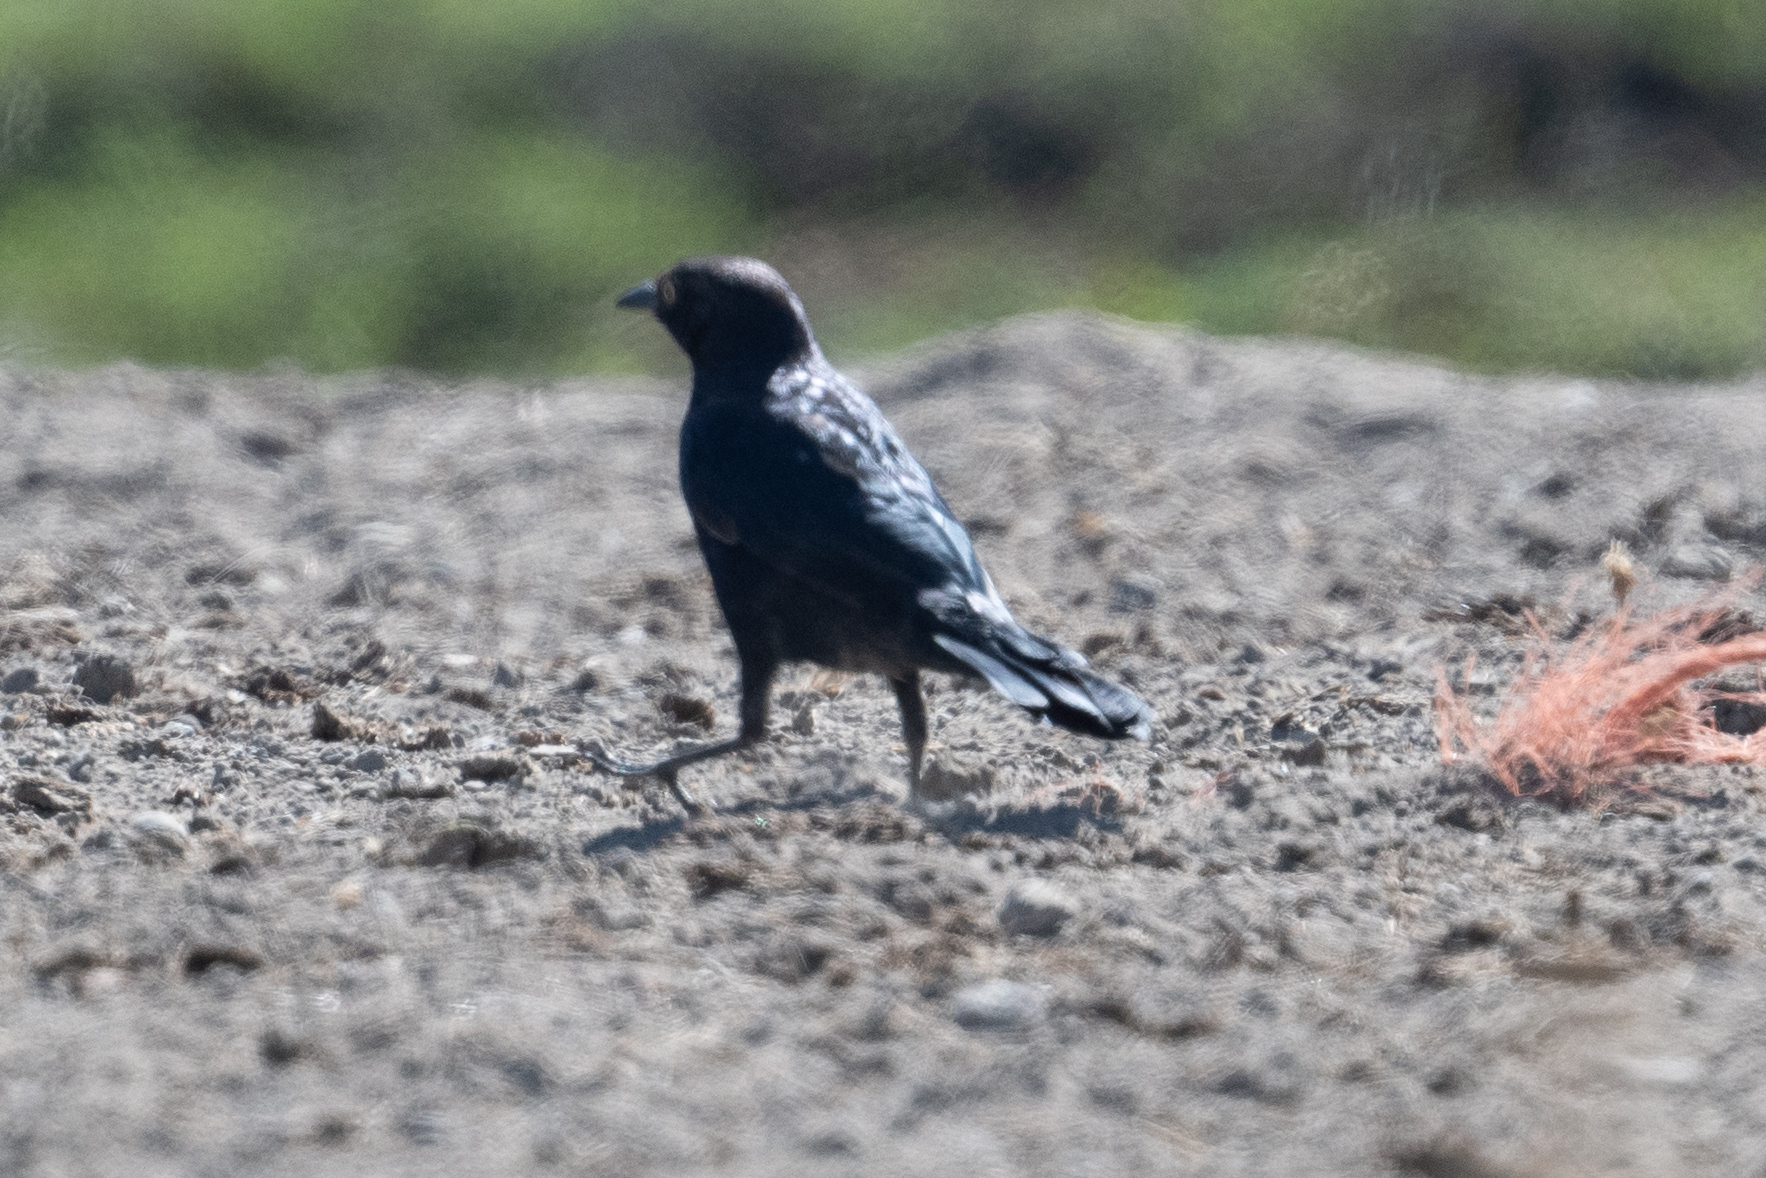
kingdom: Animalia
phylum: Chordata
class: Aves
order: Passeriformes
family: Icteridae
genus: Euphagus
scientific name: Euphagus cyanocephalus
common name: Brewer's blackbird
